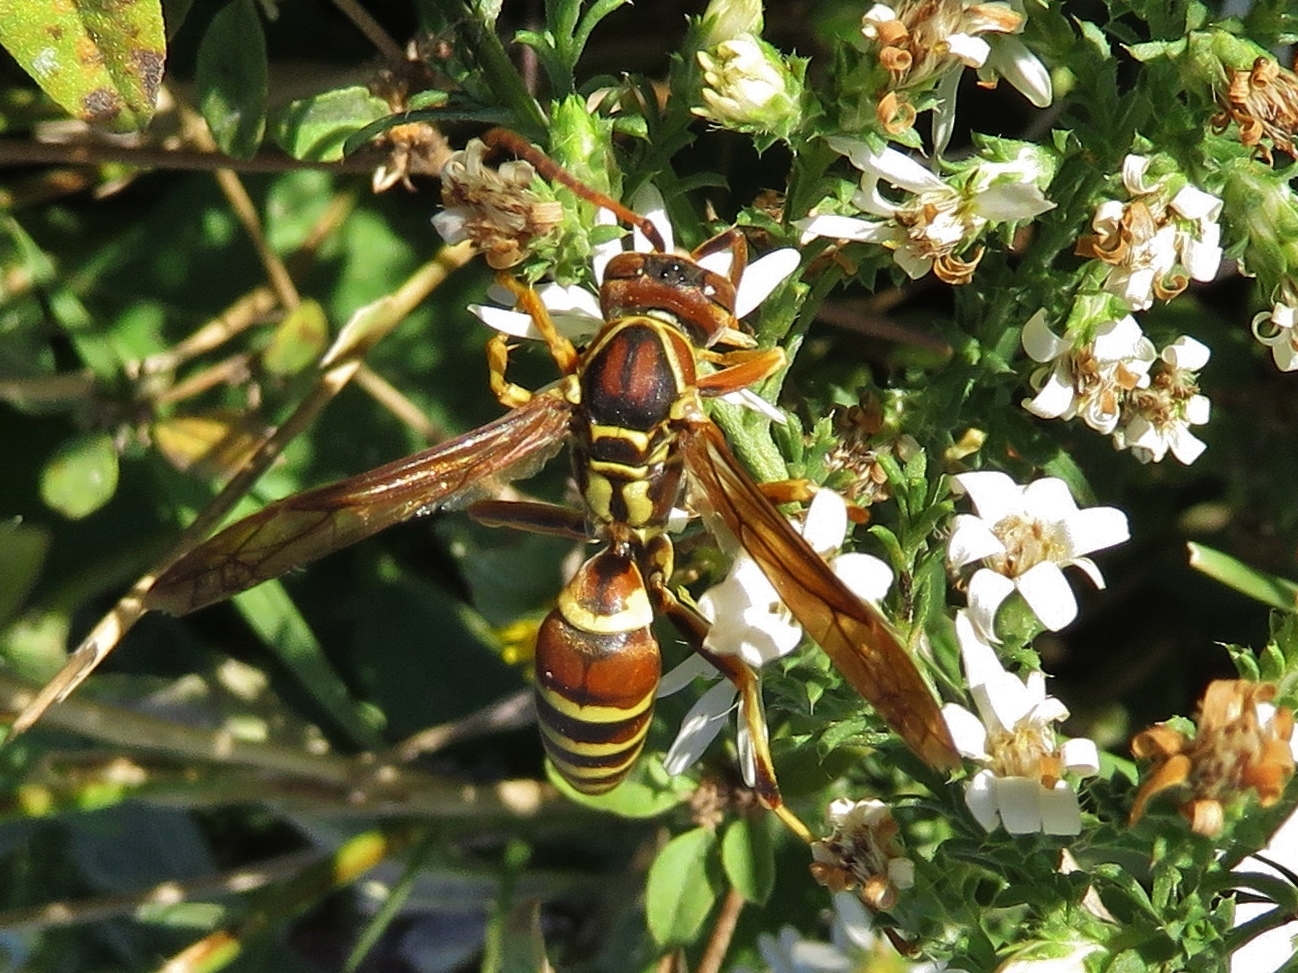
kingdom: Animalia
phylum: Arthropoda
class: Insecta
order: Hymenoptera
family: Eumenidae
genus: Polistes
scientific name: Polistes dorsalis
